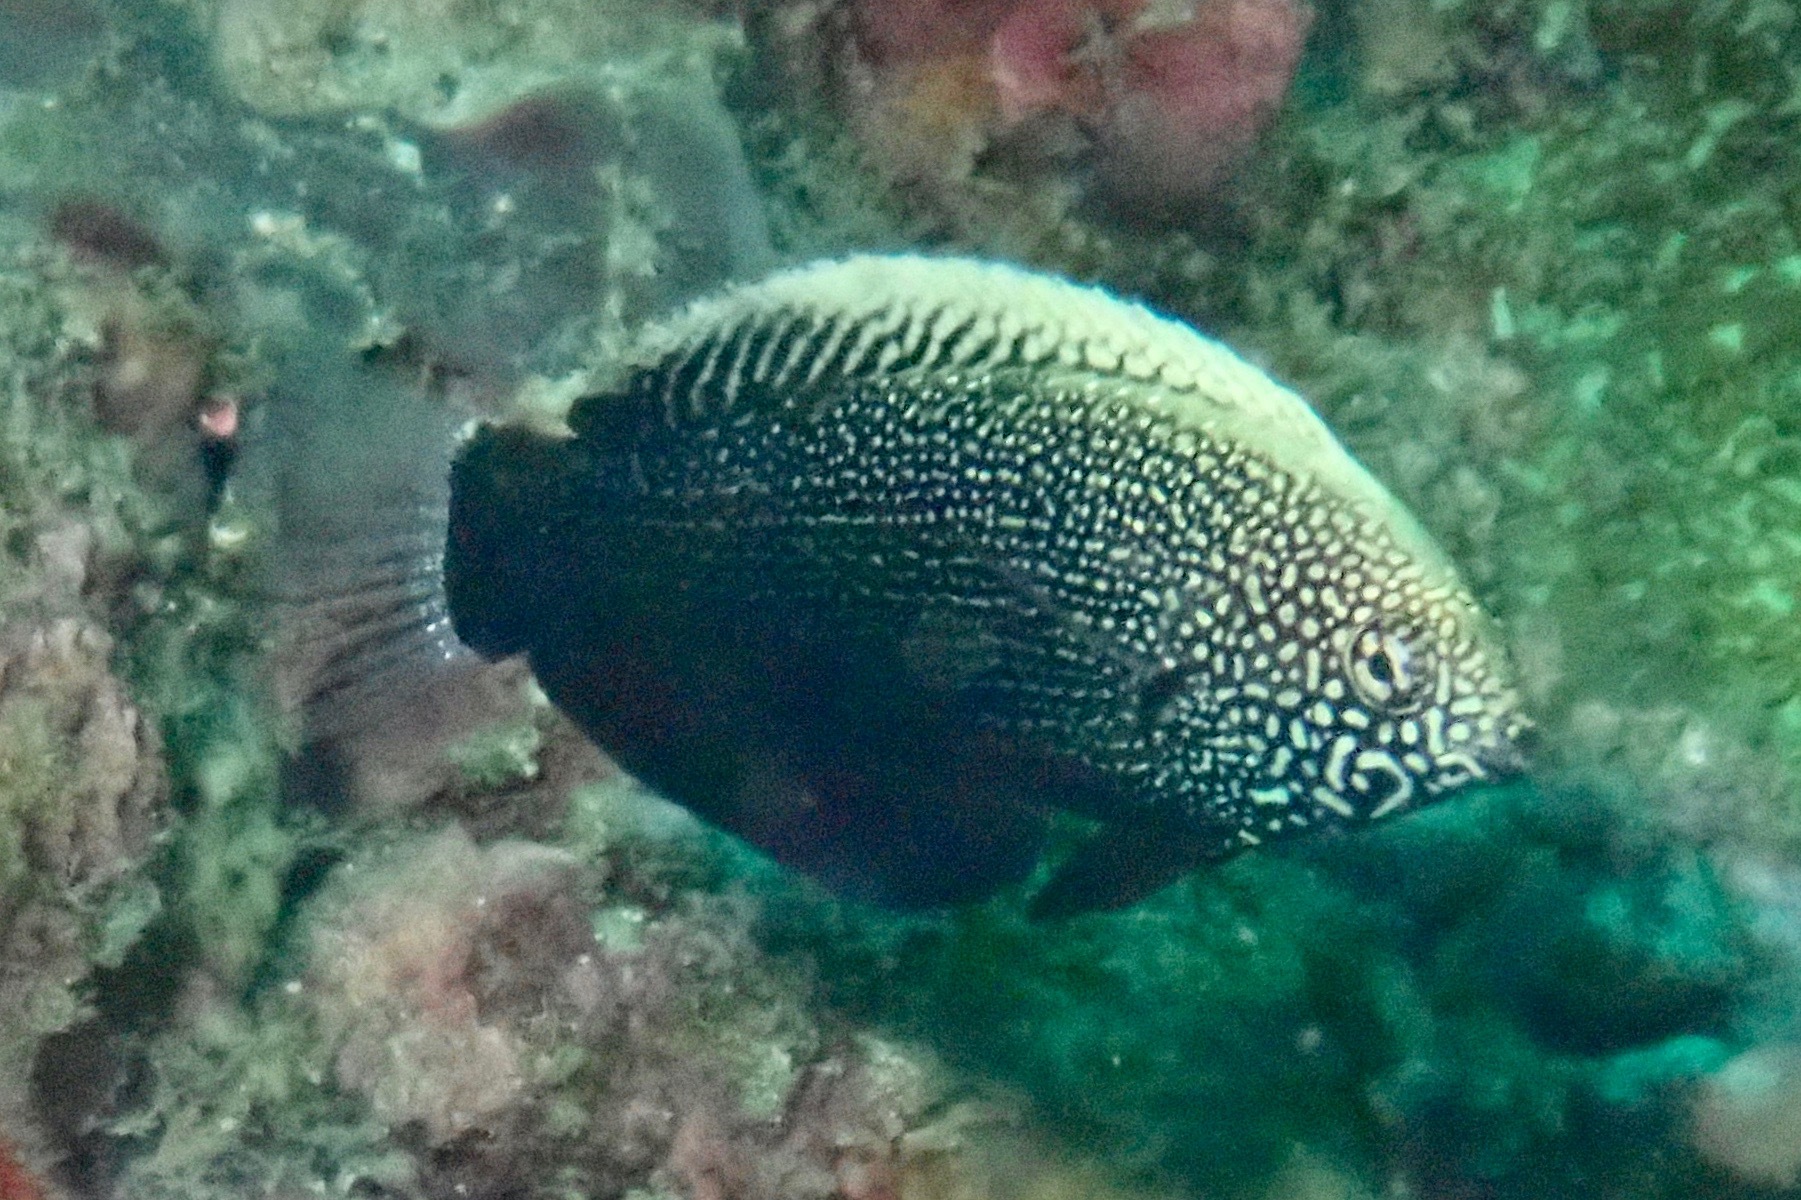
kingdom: Animalia
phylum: Chordata
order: Perciformes
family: Labridae
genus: Macropharyngodon
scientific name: Macropharyngodon negrosensis
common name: Black leopard wrasse
